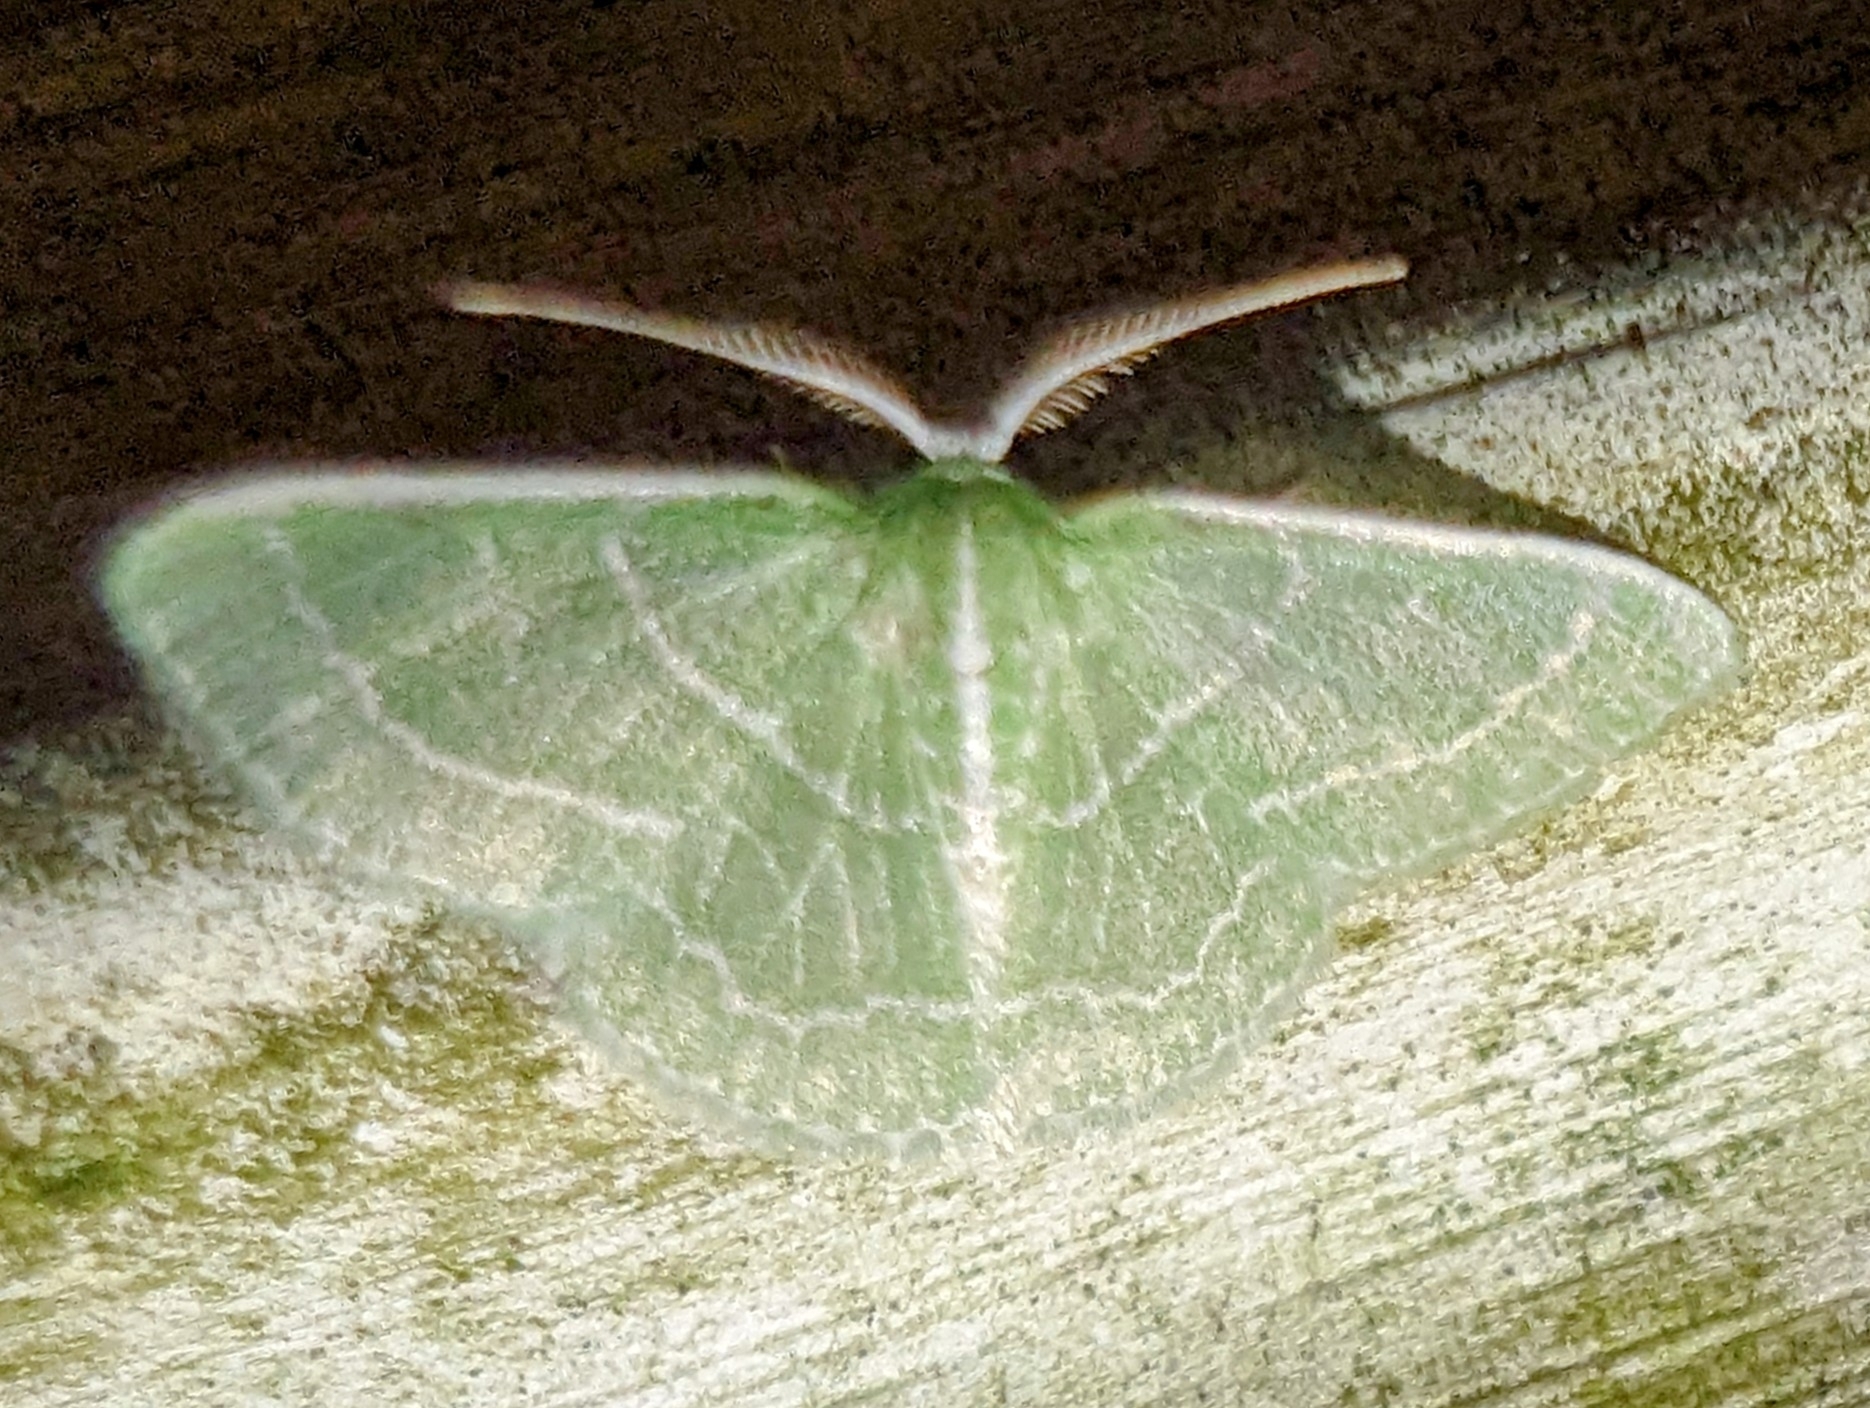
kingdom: Animalia
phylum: Arthropoda
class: Insecta
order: Lepidoptera
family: Geometridae
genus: Synchlora
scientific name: Synchlora aerata
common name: Wavy-lined emerald
